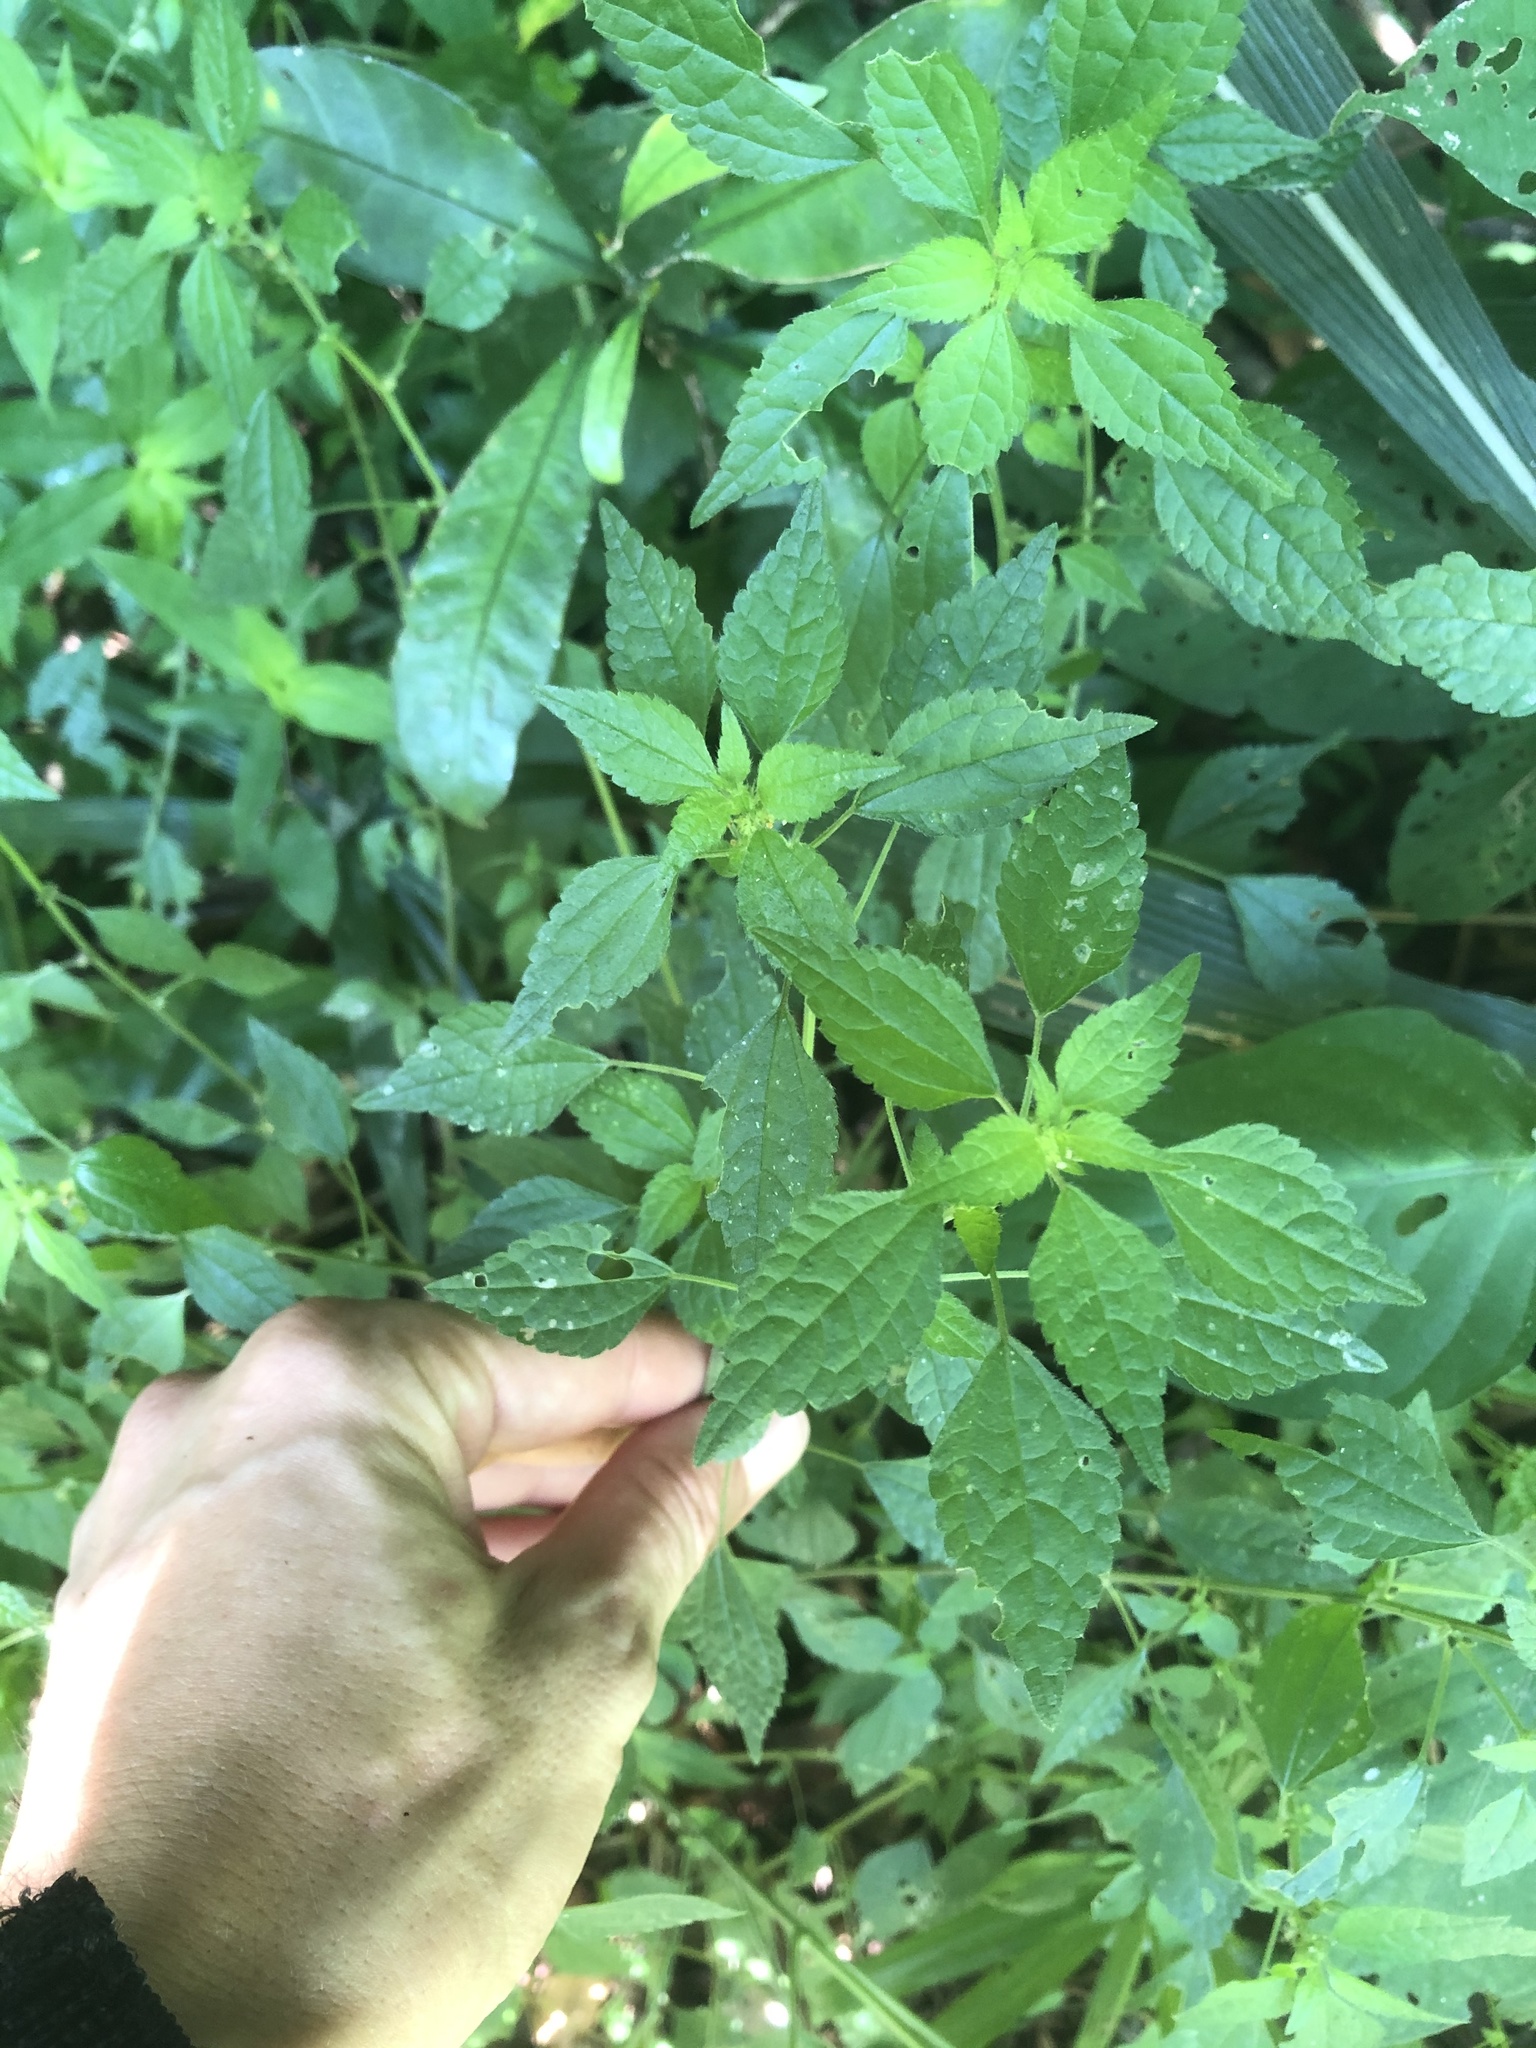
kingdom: Plantae
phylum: Tracheophyta
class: Magnoliopsida
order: Rosales
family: Urticaceae
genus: Didymodoxa
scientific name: Didymodoxa caffra
